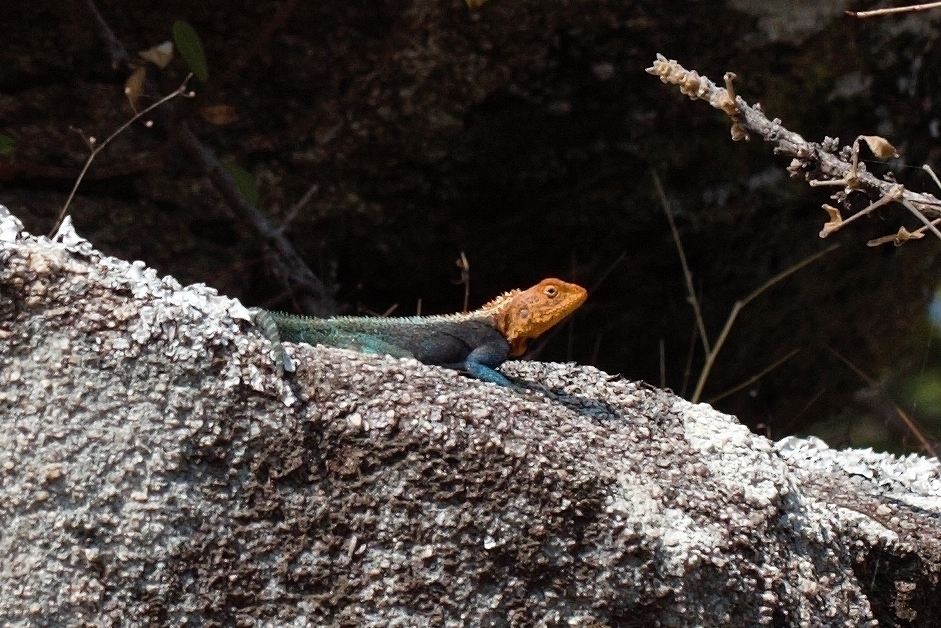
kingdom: Animalia
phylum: Chordata
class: Squamata
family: Agamidae
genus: Agama
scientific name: Agama kirkii
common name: Kirk's rock agama
